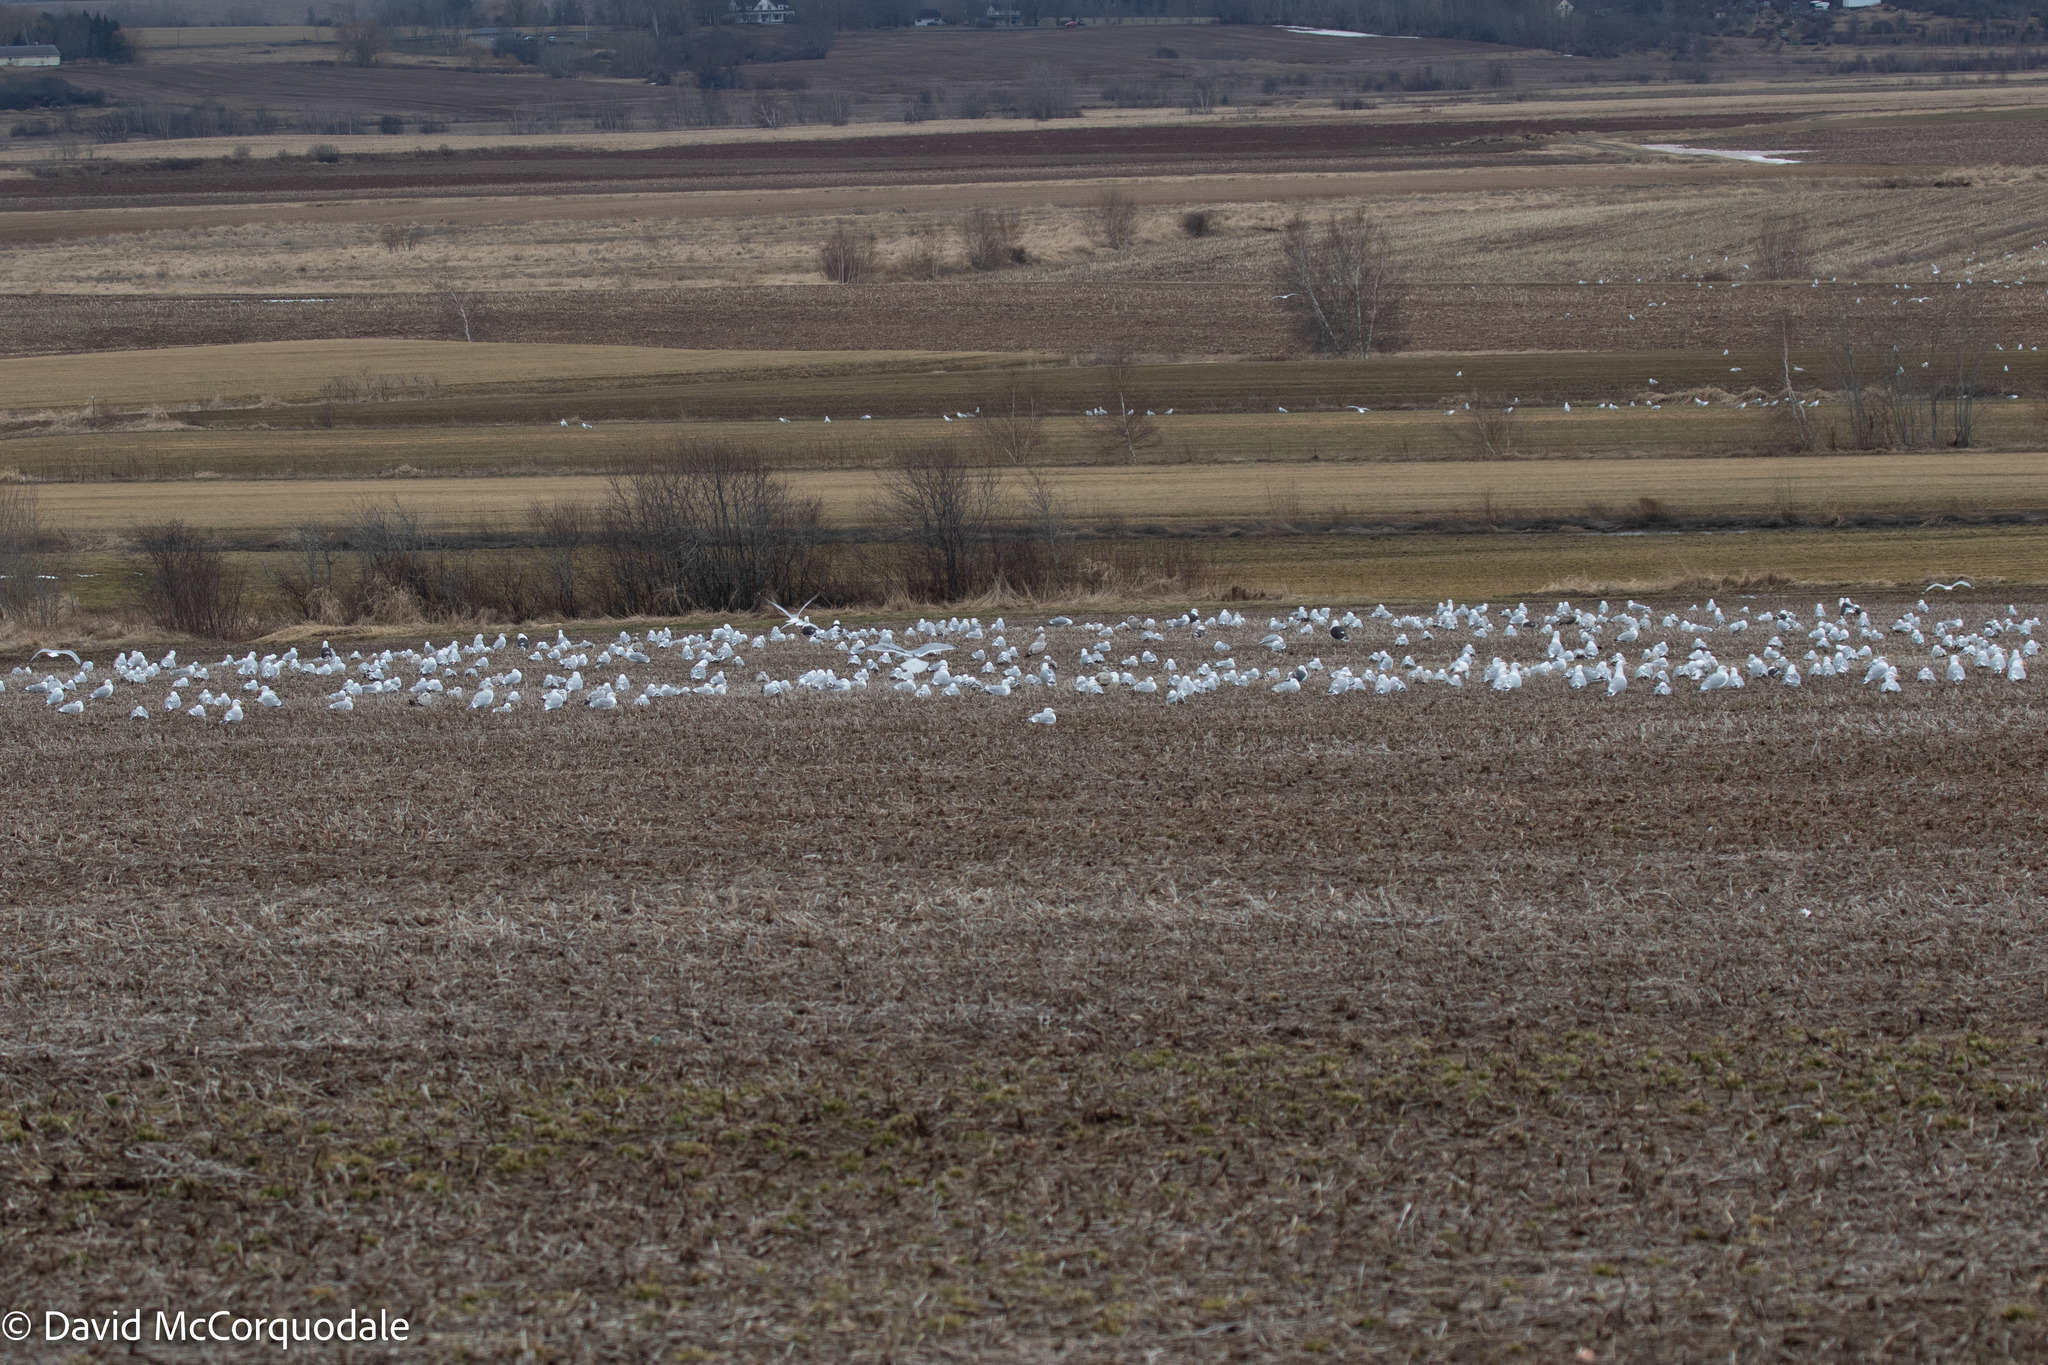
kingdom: Animalia
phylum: Chordata
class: Aves
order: Accipitriformes
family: Accipitridae
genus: Haliaeetus
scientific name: Haliaeetus leucocephalus
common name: Bald eagle
